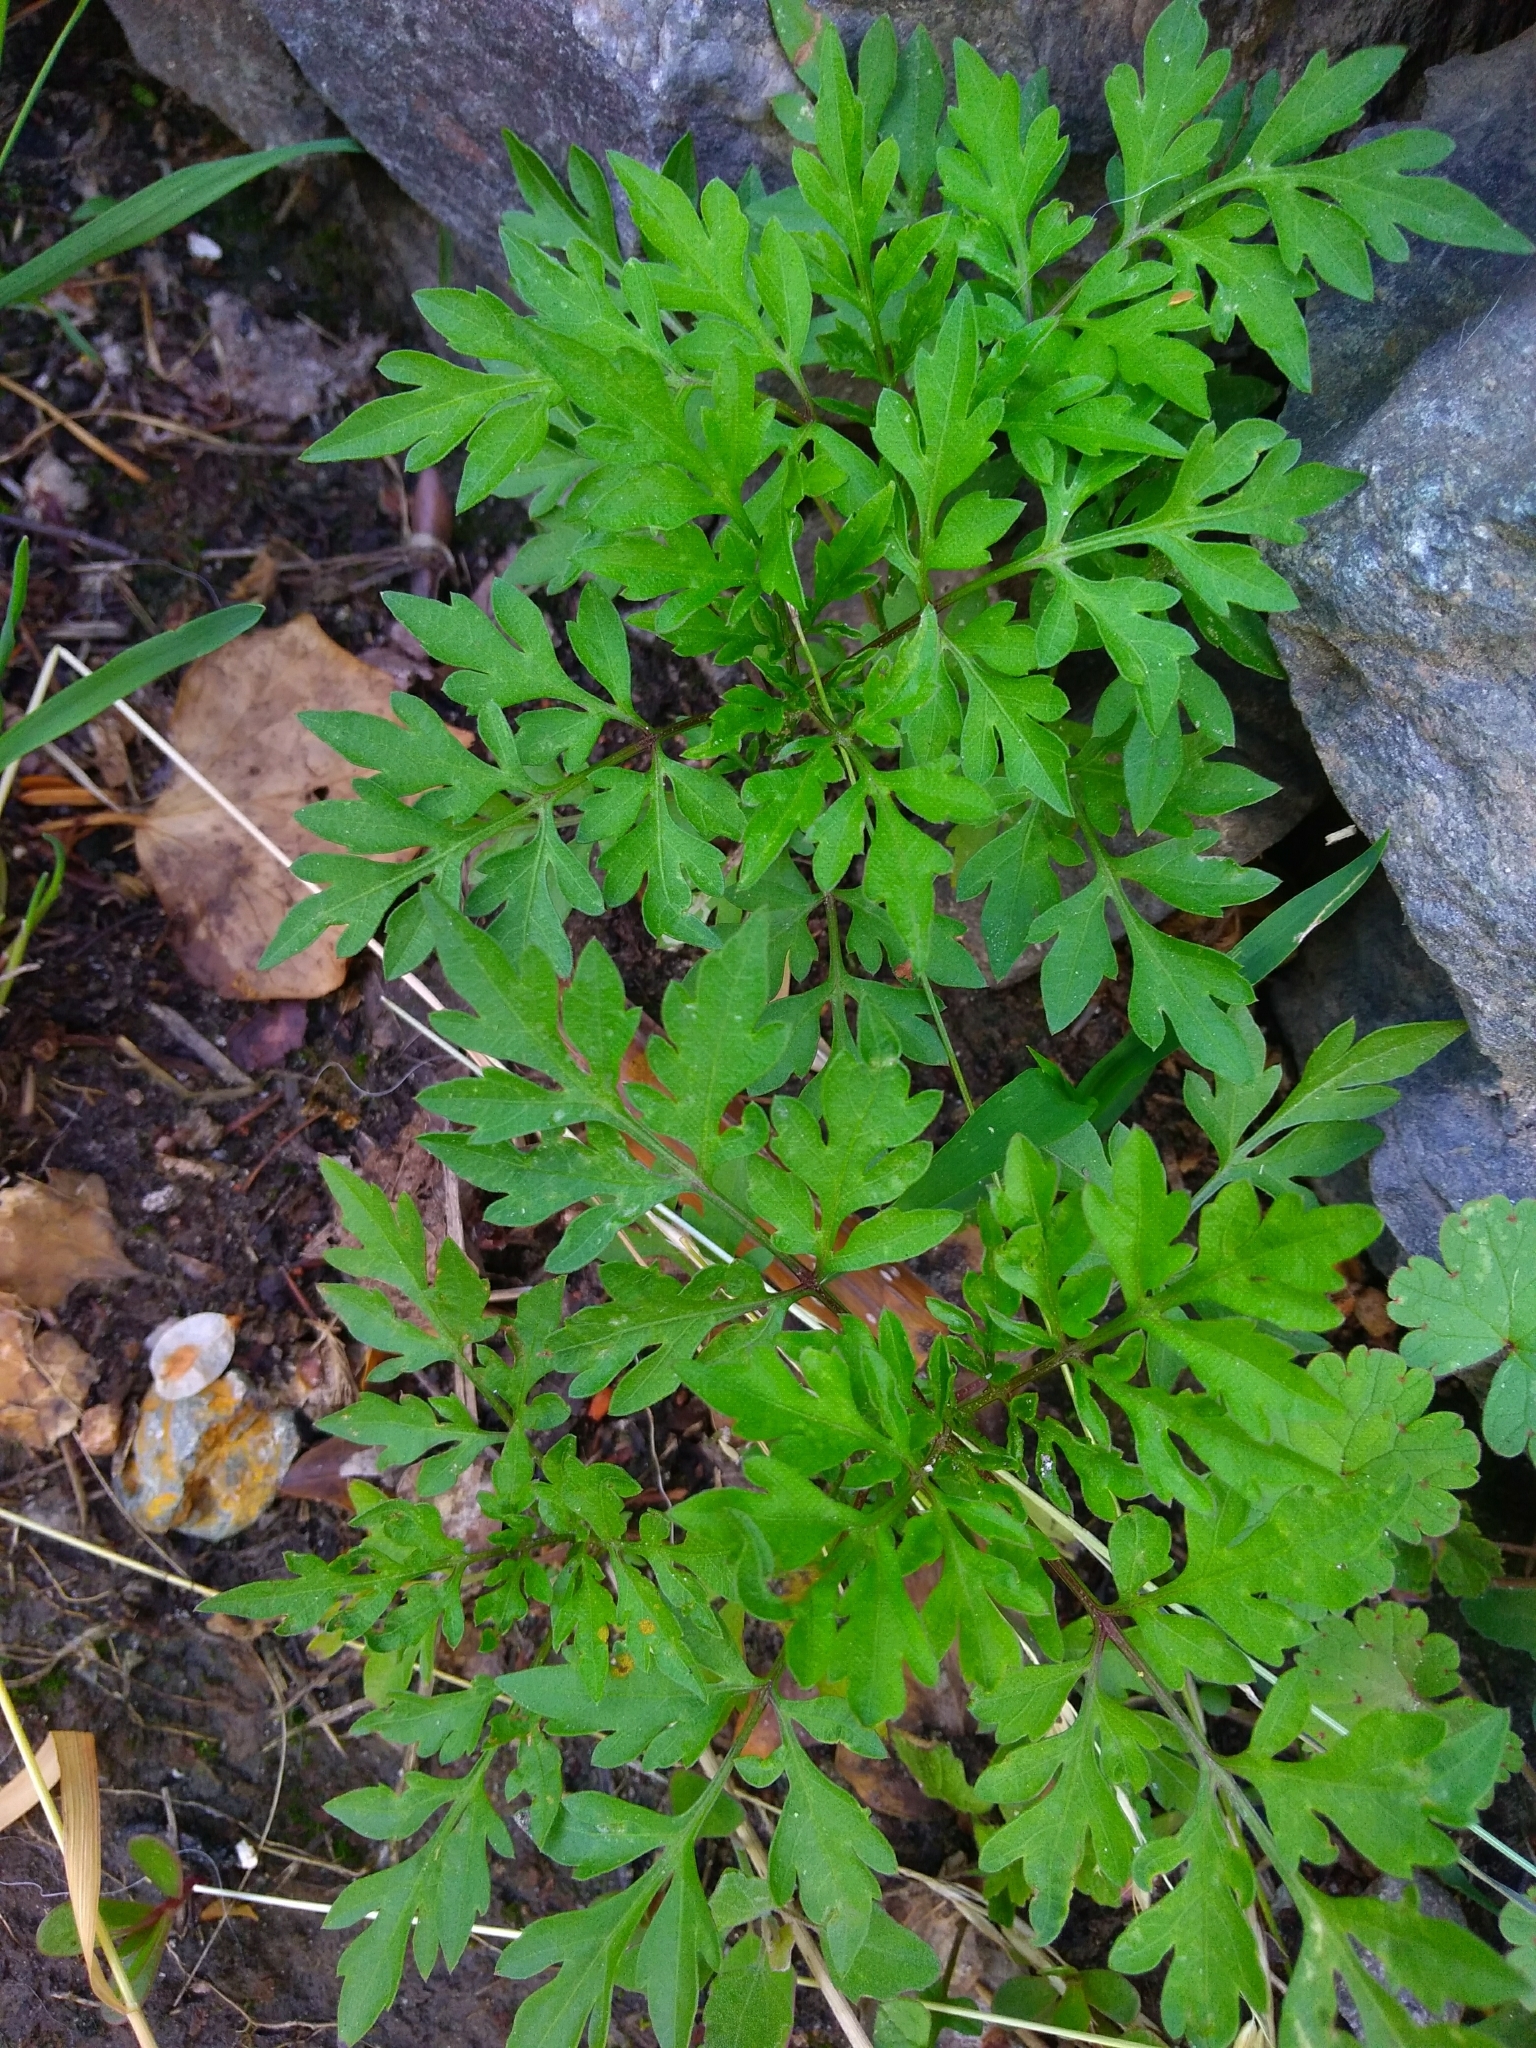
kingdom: Plantae
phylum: Tracheophyta
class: Magnoliopsida
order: Asterales
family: Asteraceae
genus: Bidens
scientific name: Bidens bipinnata
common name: Spanish-needles
